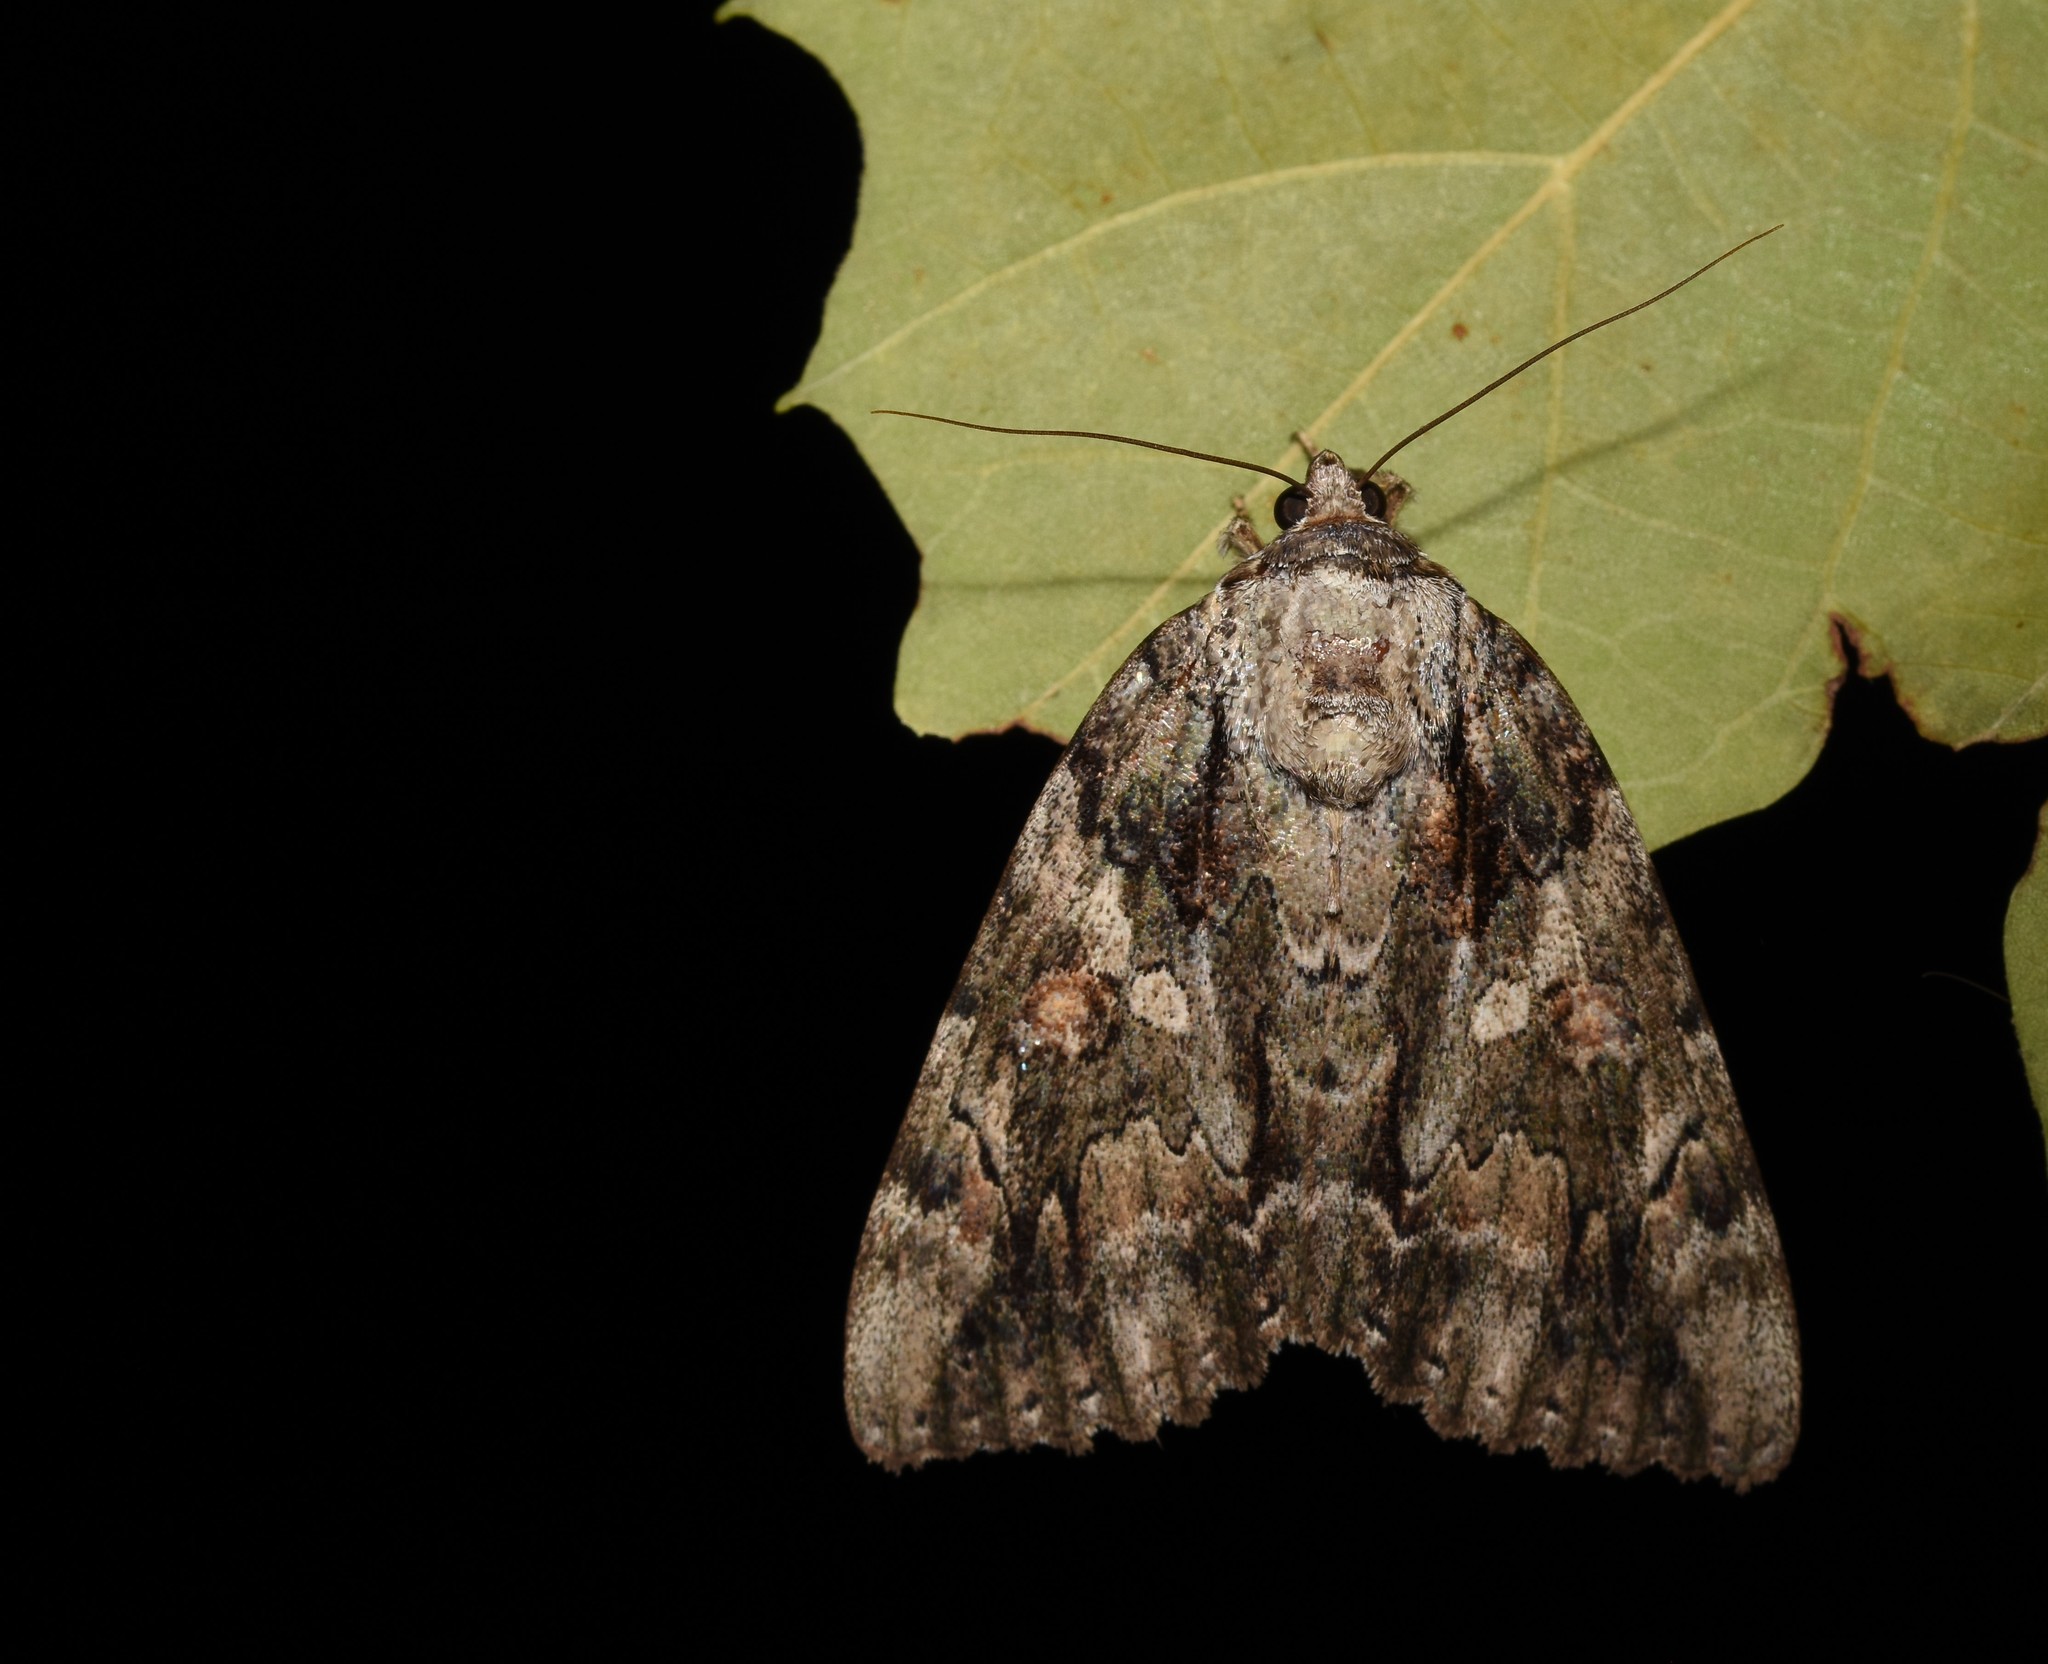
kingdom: Animalia
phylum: Arthropoda
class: Insecta
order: Lepidoptera
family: Erebidae
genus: Catocala
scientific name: Catocala neogama
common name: Bride underwing
